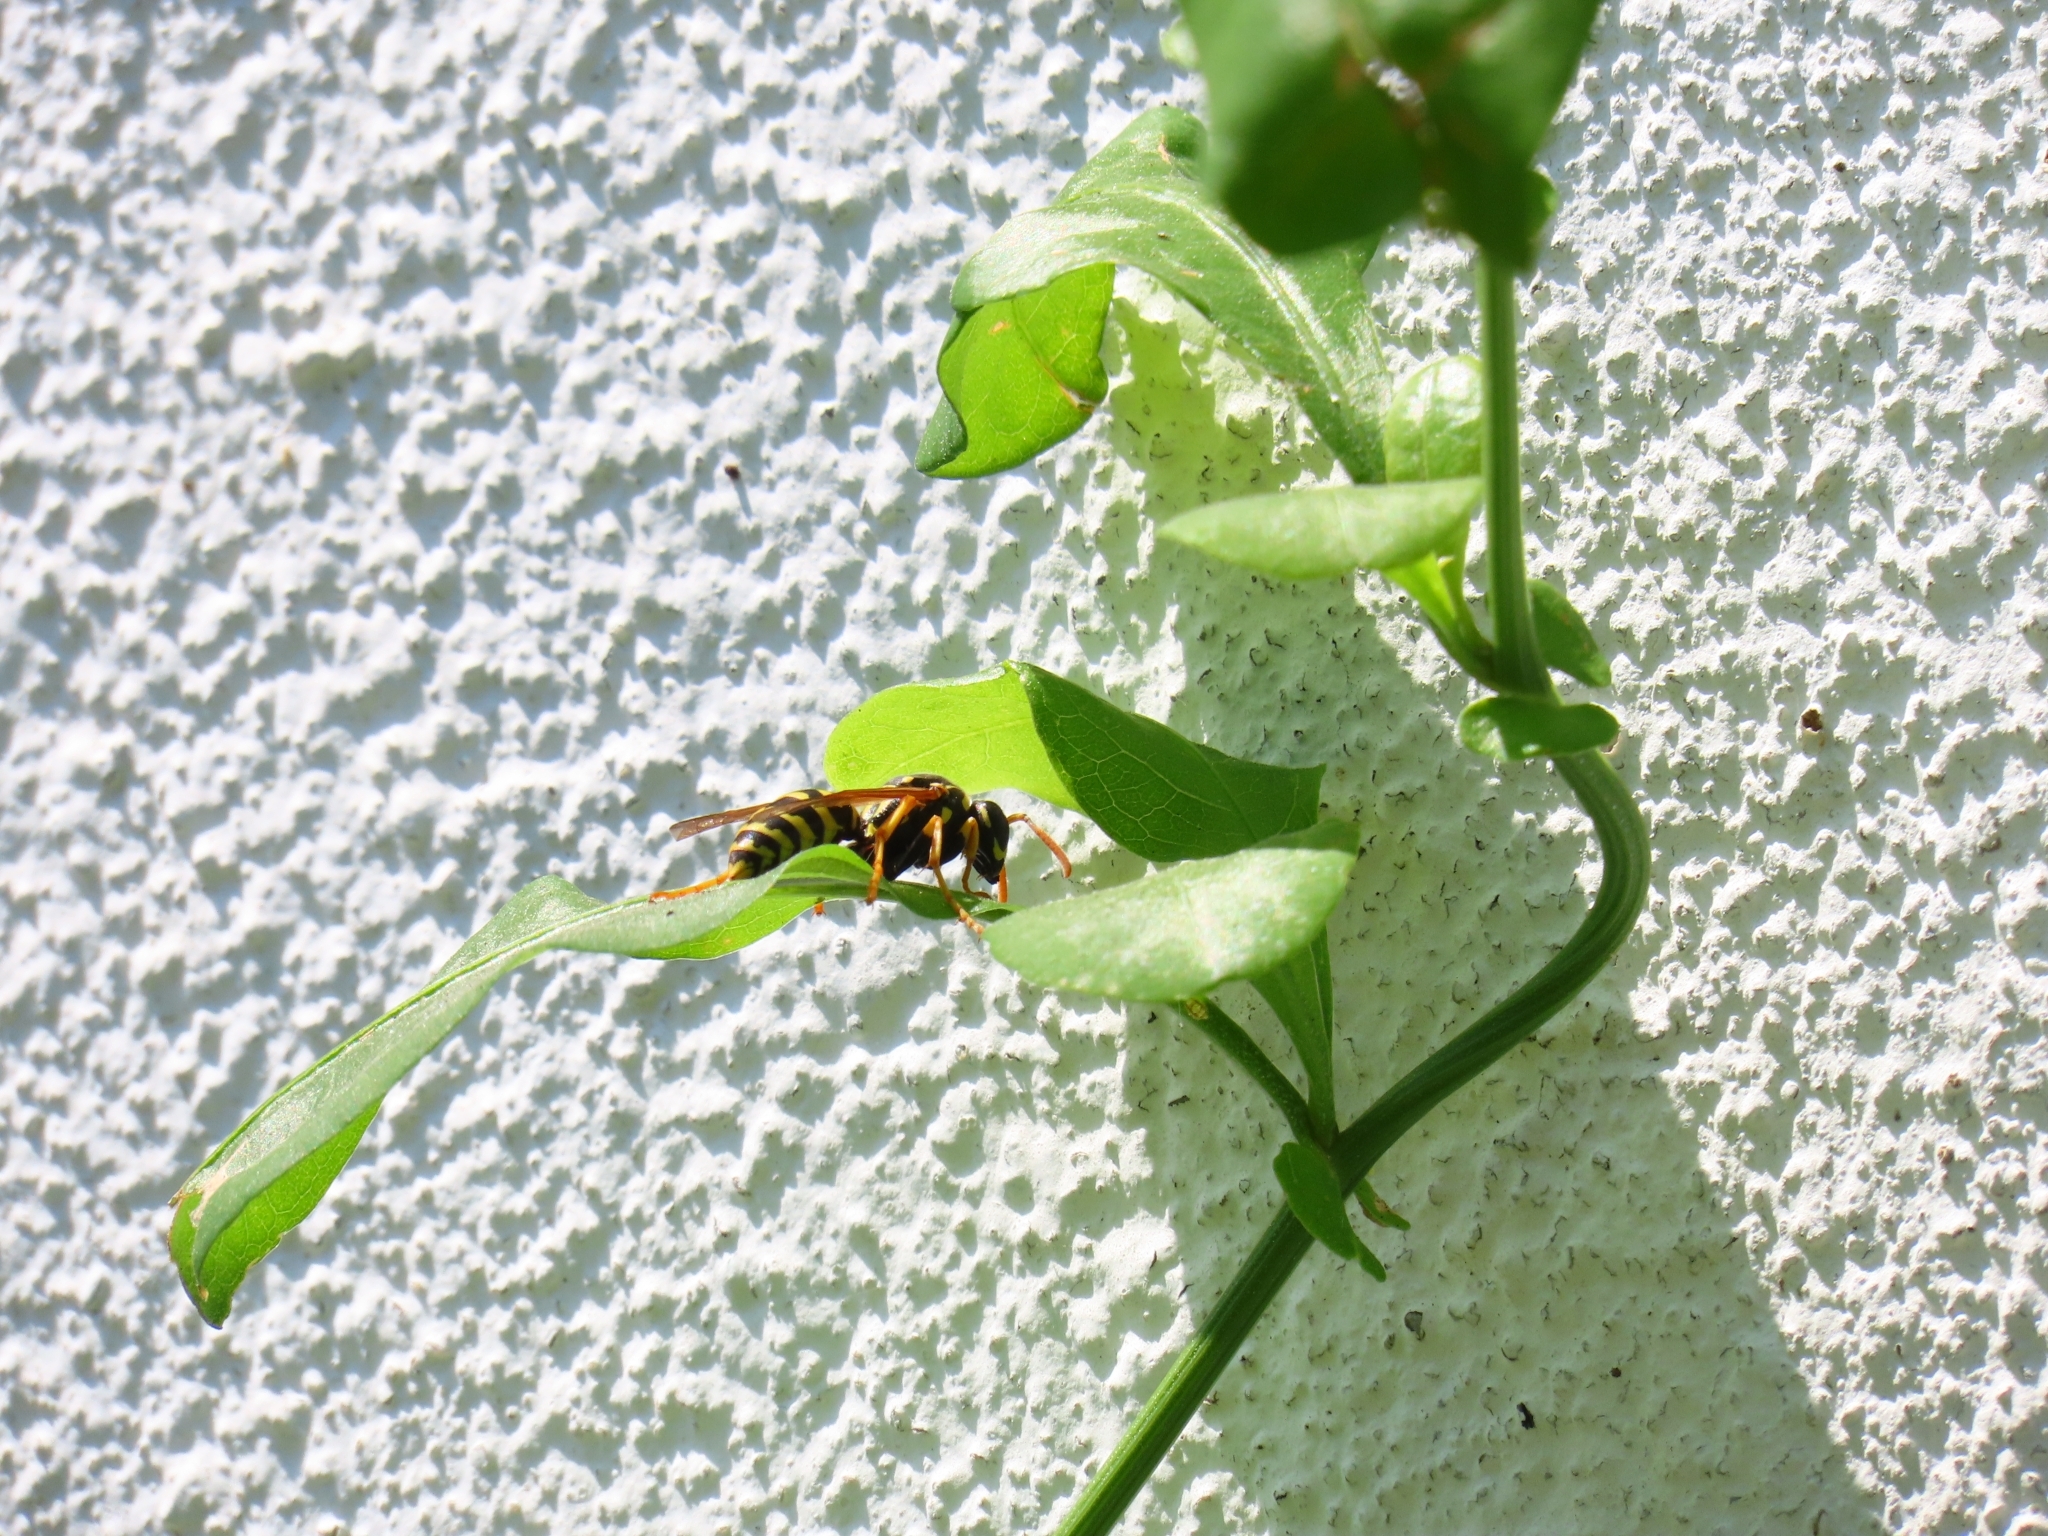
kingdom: Animalia
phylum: Arthropoda
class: Insecta
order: Hymenoptera
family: Eumenidae
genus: Polistes
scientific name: Polistes dominula
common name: Paper wasp
